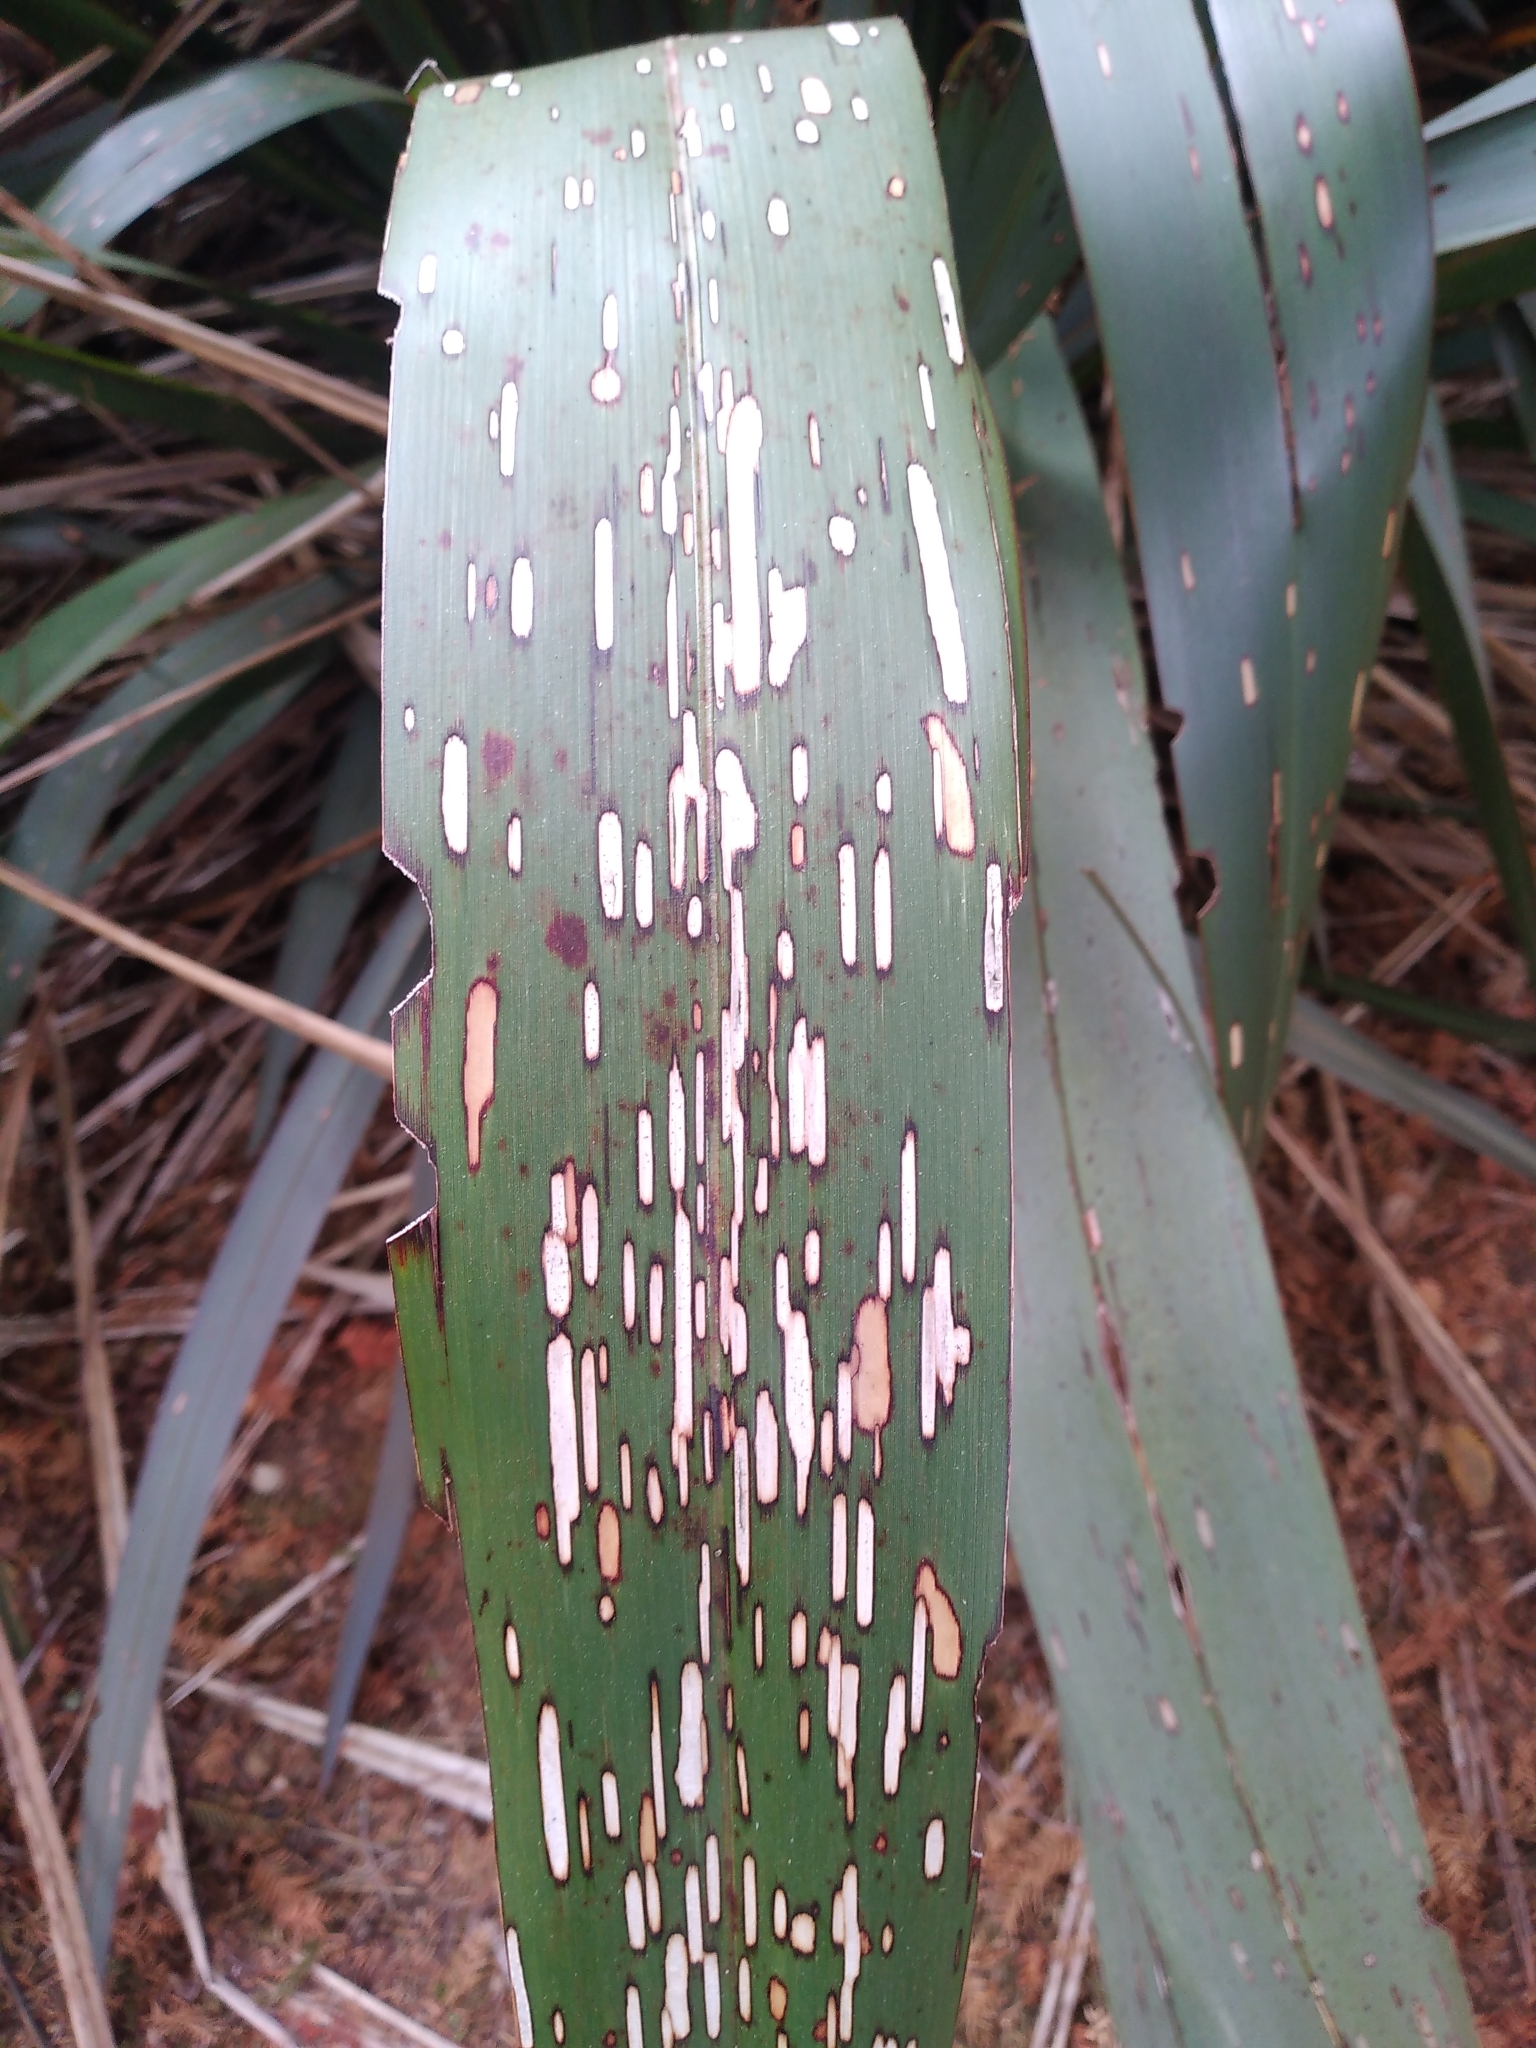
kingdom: Animalia
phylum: Arthropoda
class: Insecta
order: Lepidoptera
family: Geometridae
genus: Orthoclydon
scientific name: Orthoclydon praefectata
